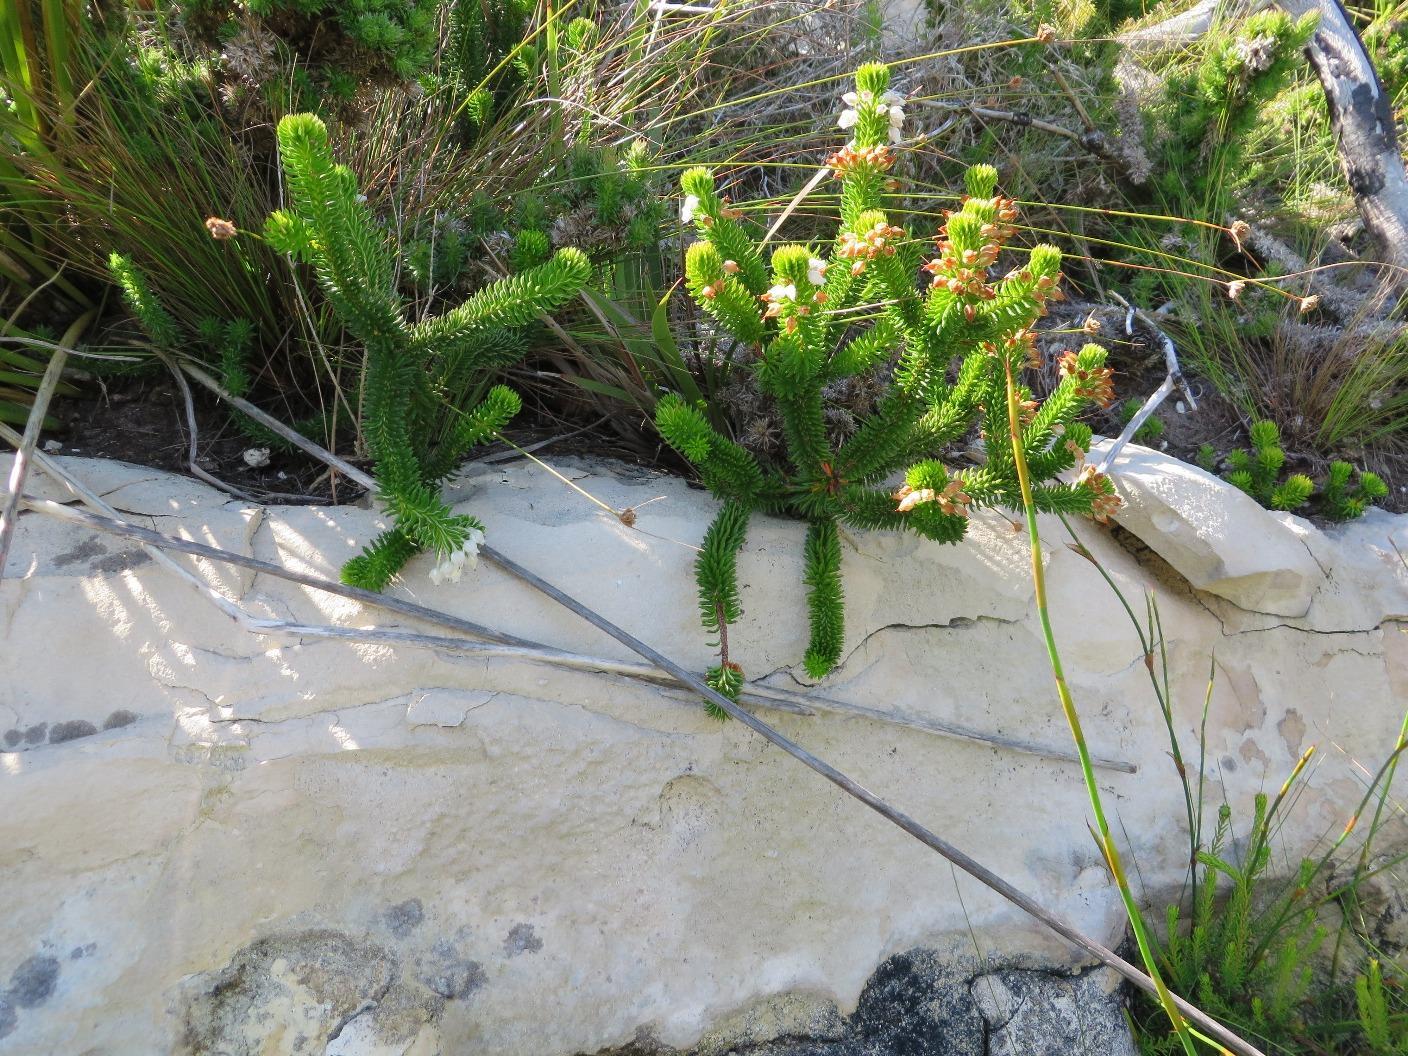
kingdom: Plantae
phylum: Tracheophyta
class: Magnoliopsida
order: Ericales
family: Ericaceae
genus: Erica
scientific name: Erica pulvinata
